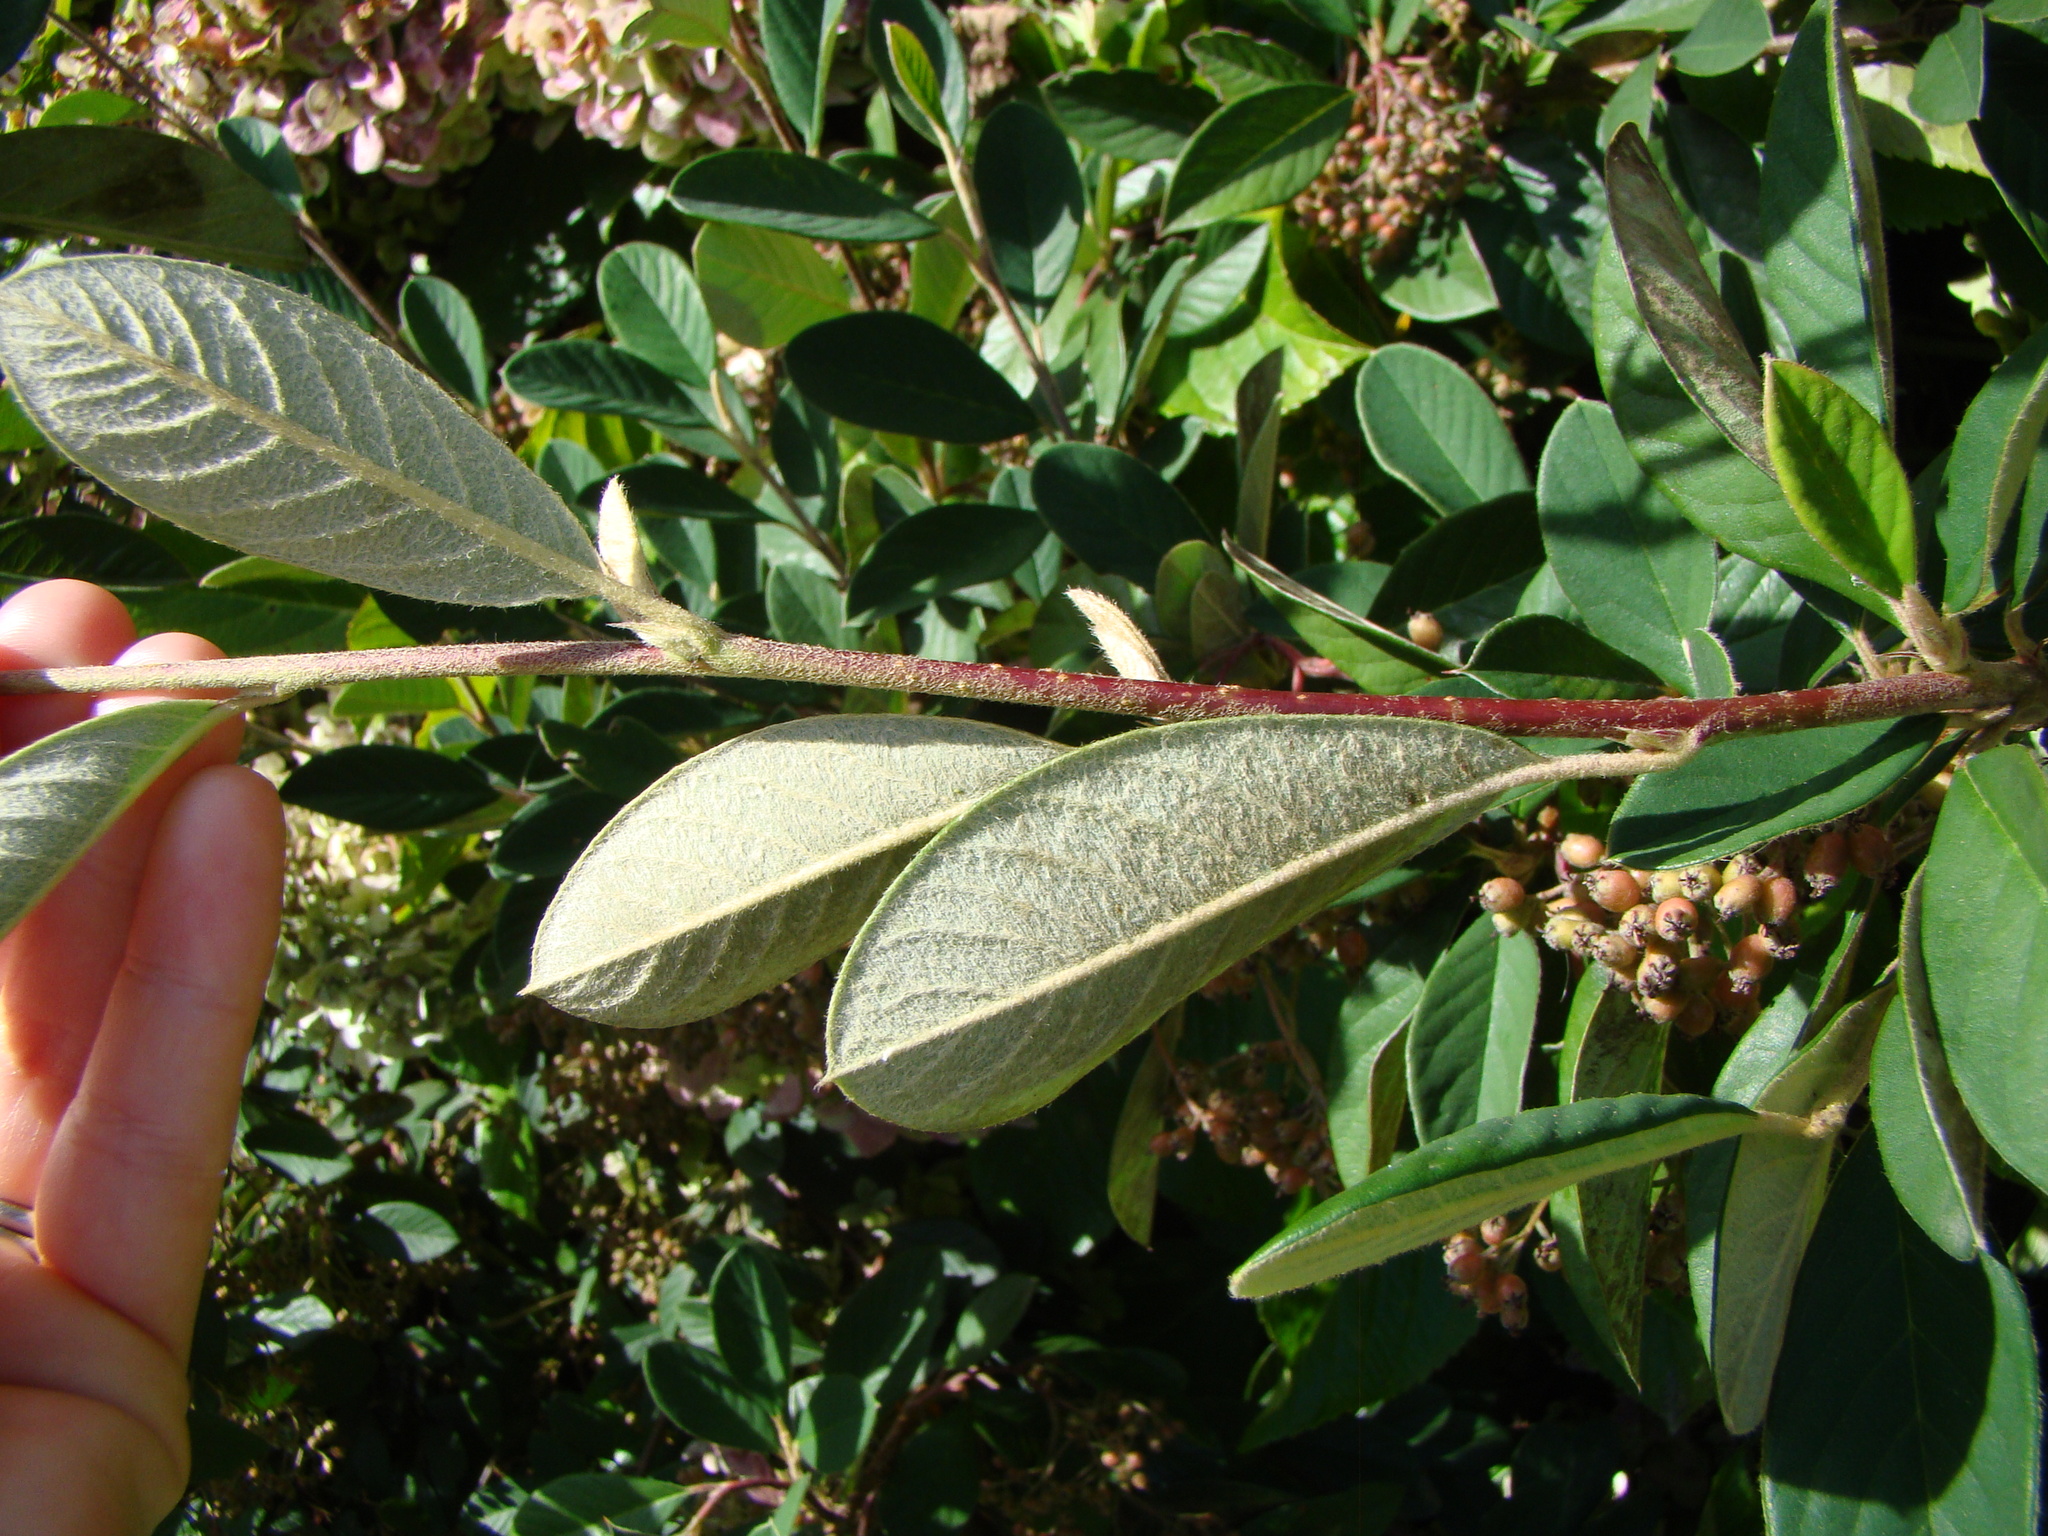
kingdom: Plantae
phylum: Tracheophyta
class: Magnoliopsida
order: Rosales
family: Rosaceae
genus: Cotoneaster
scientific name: Cotoneaster coriaceus
